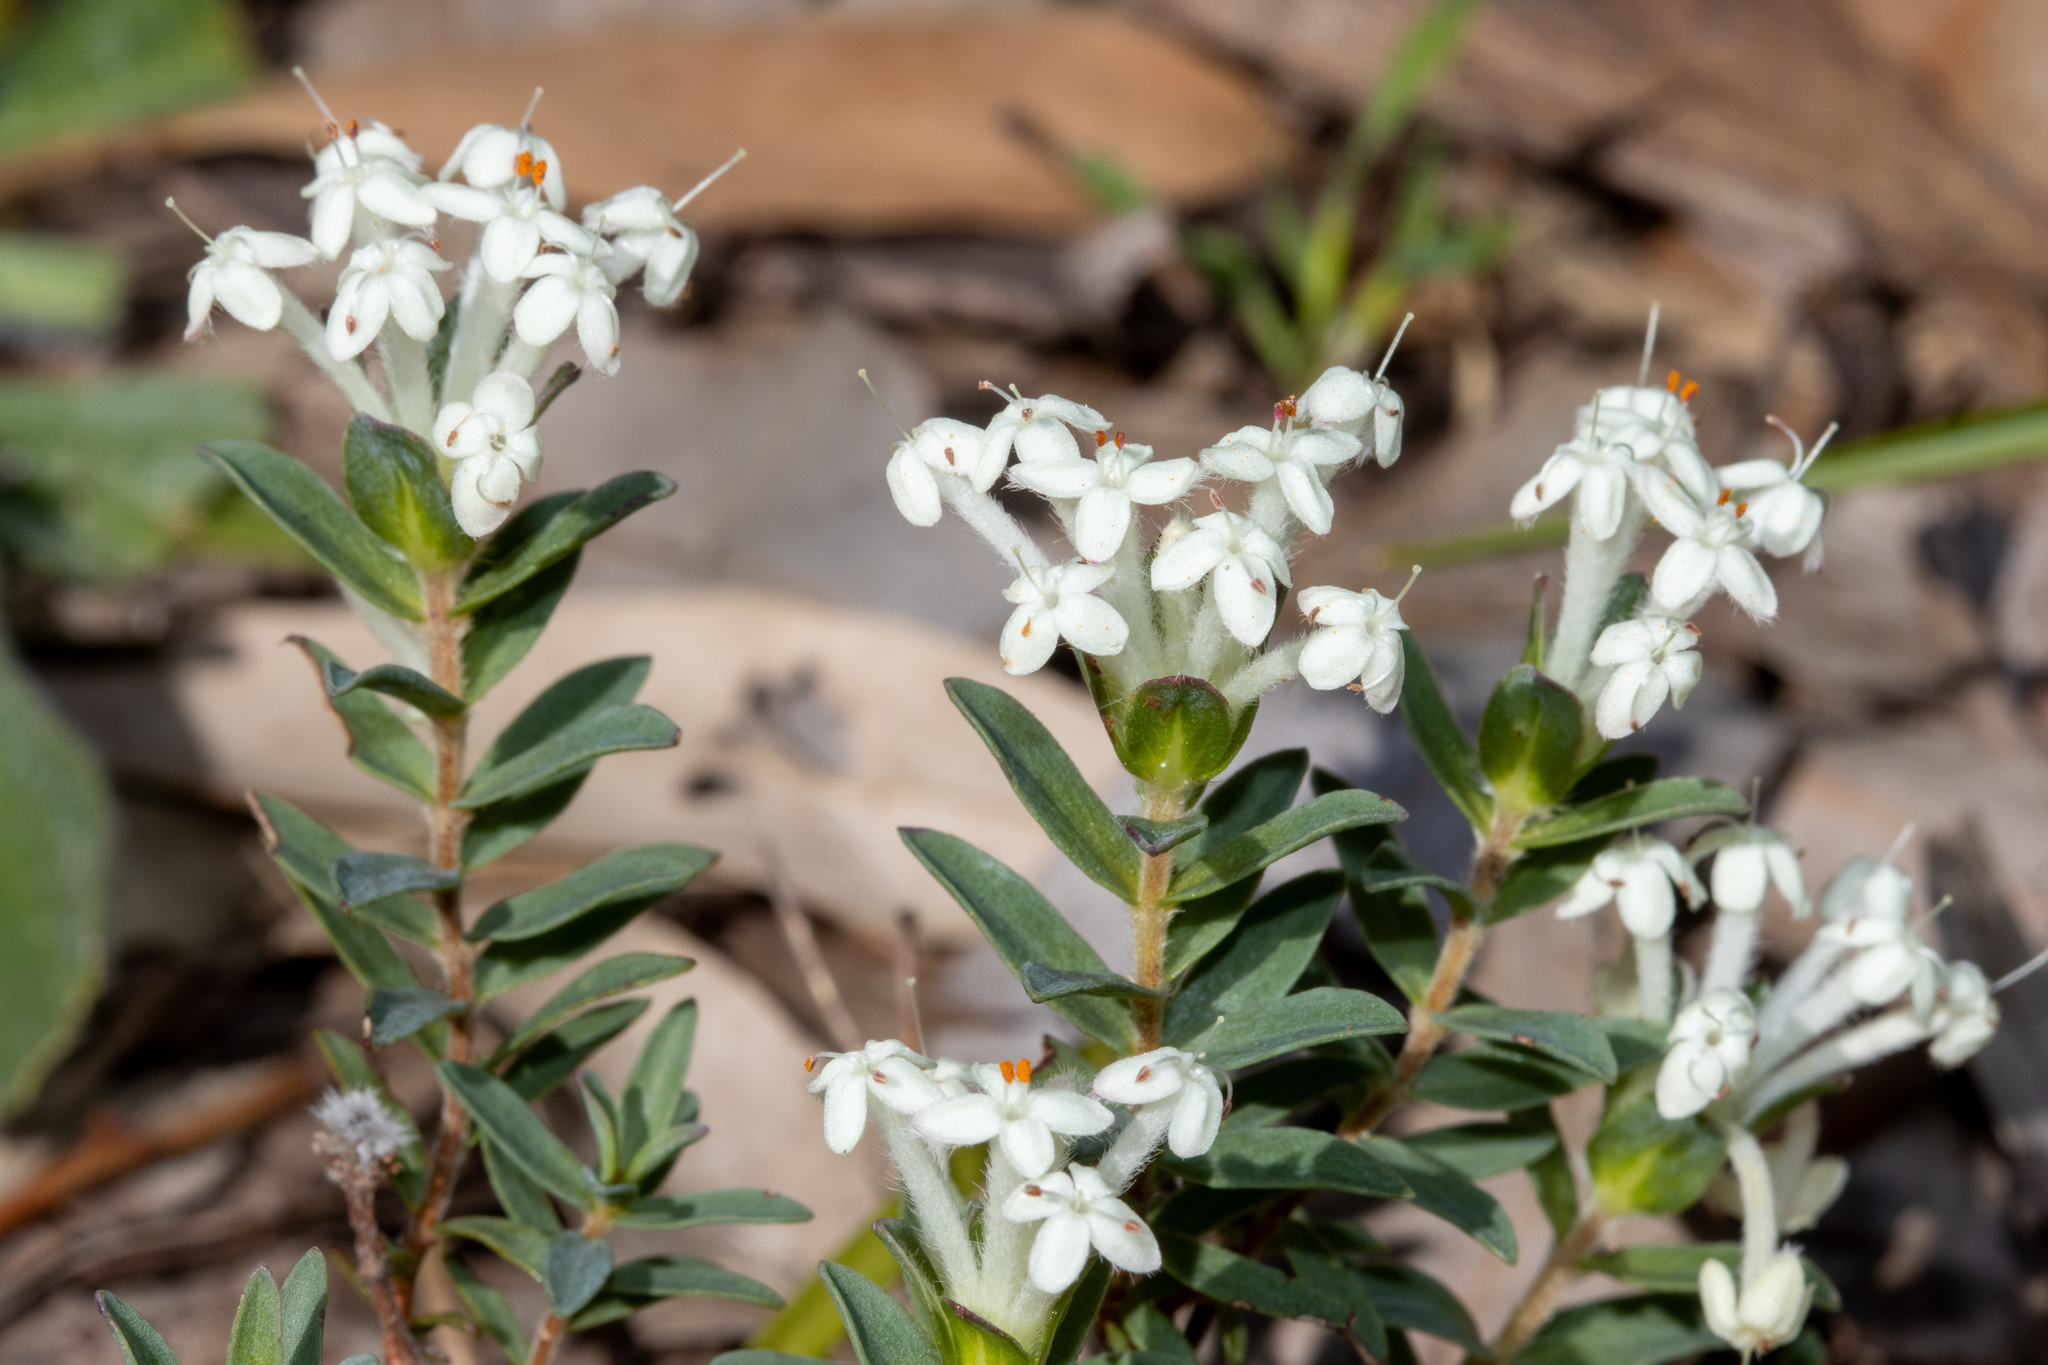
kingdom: Plantae
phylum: Tracheophyta
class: Magnoliopsida
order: Malvales
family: Thymelaeaceae
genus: Pimelea
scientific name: Pimelea humilis
